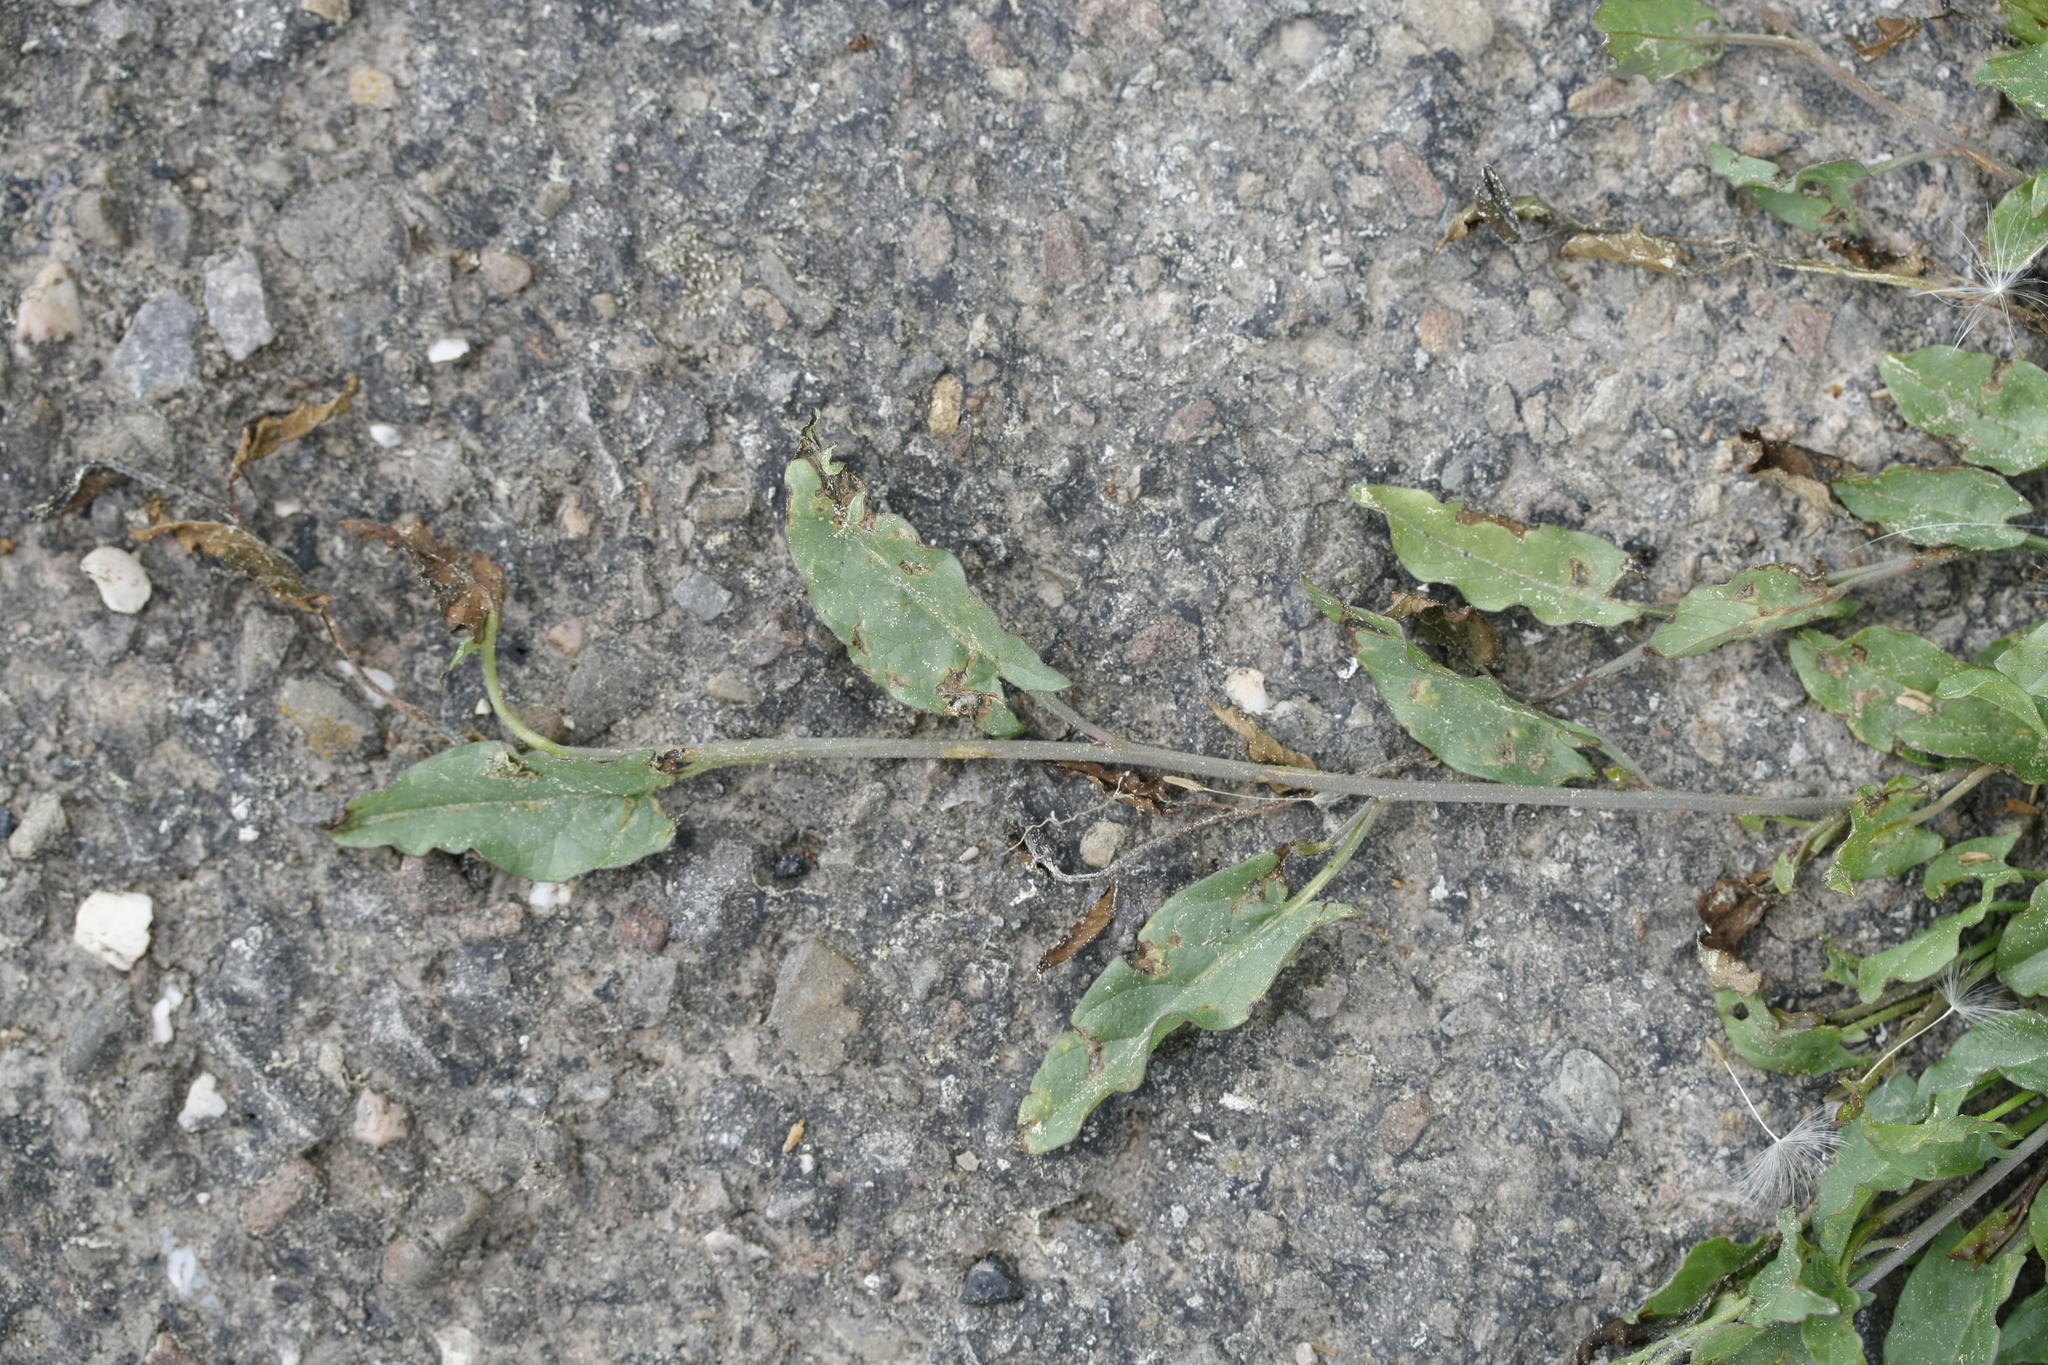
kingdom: Plantae
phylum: Tracheophyta
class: Magnoliopsida
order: Solanales
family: Convolvulaceae
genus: Convolvulus
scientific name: Convolvulus arvensis
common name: Field bindweed
